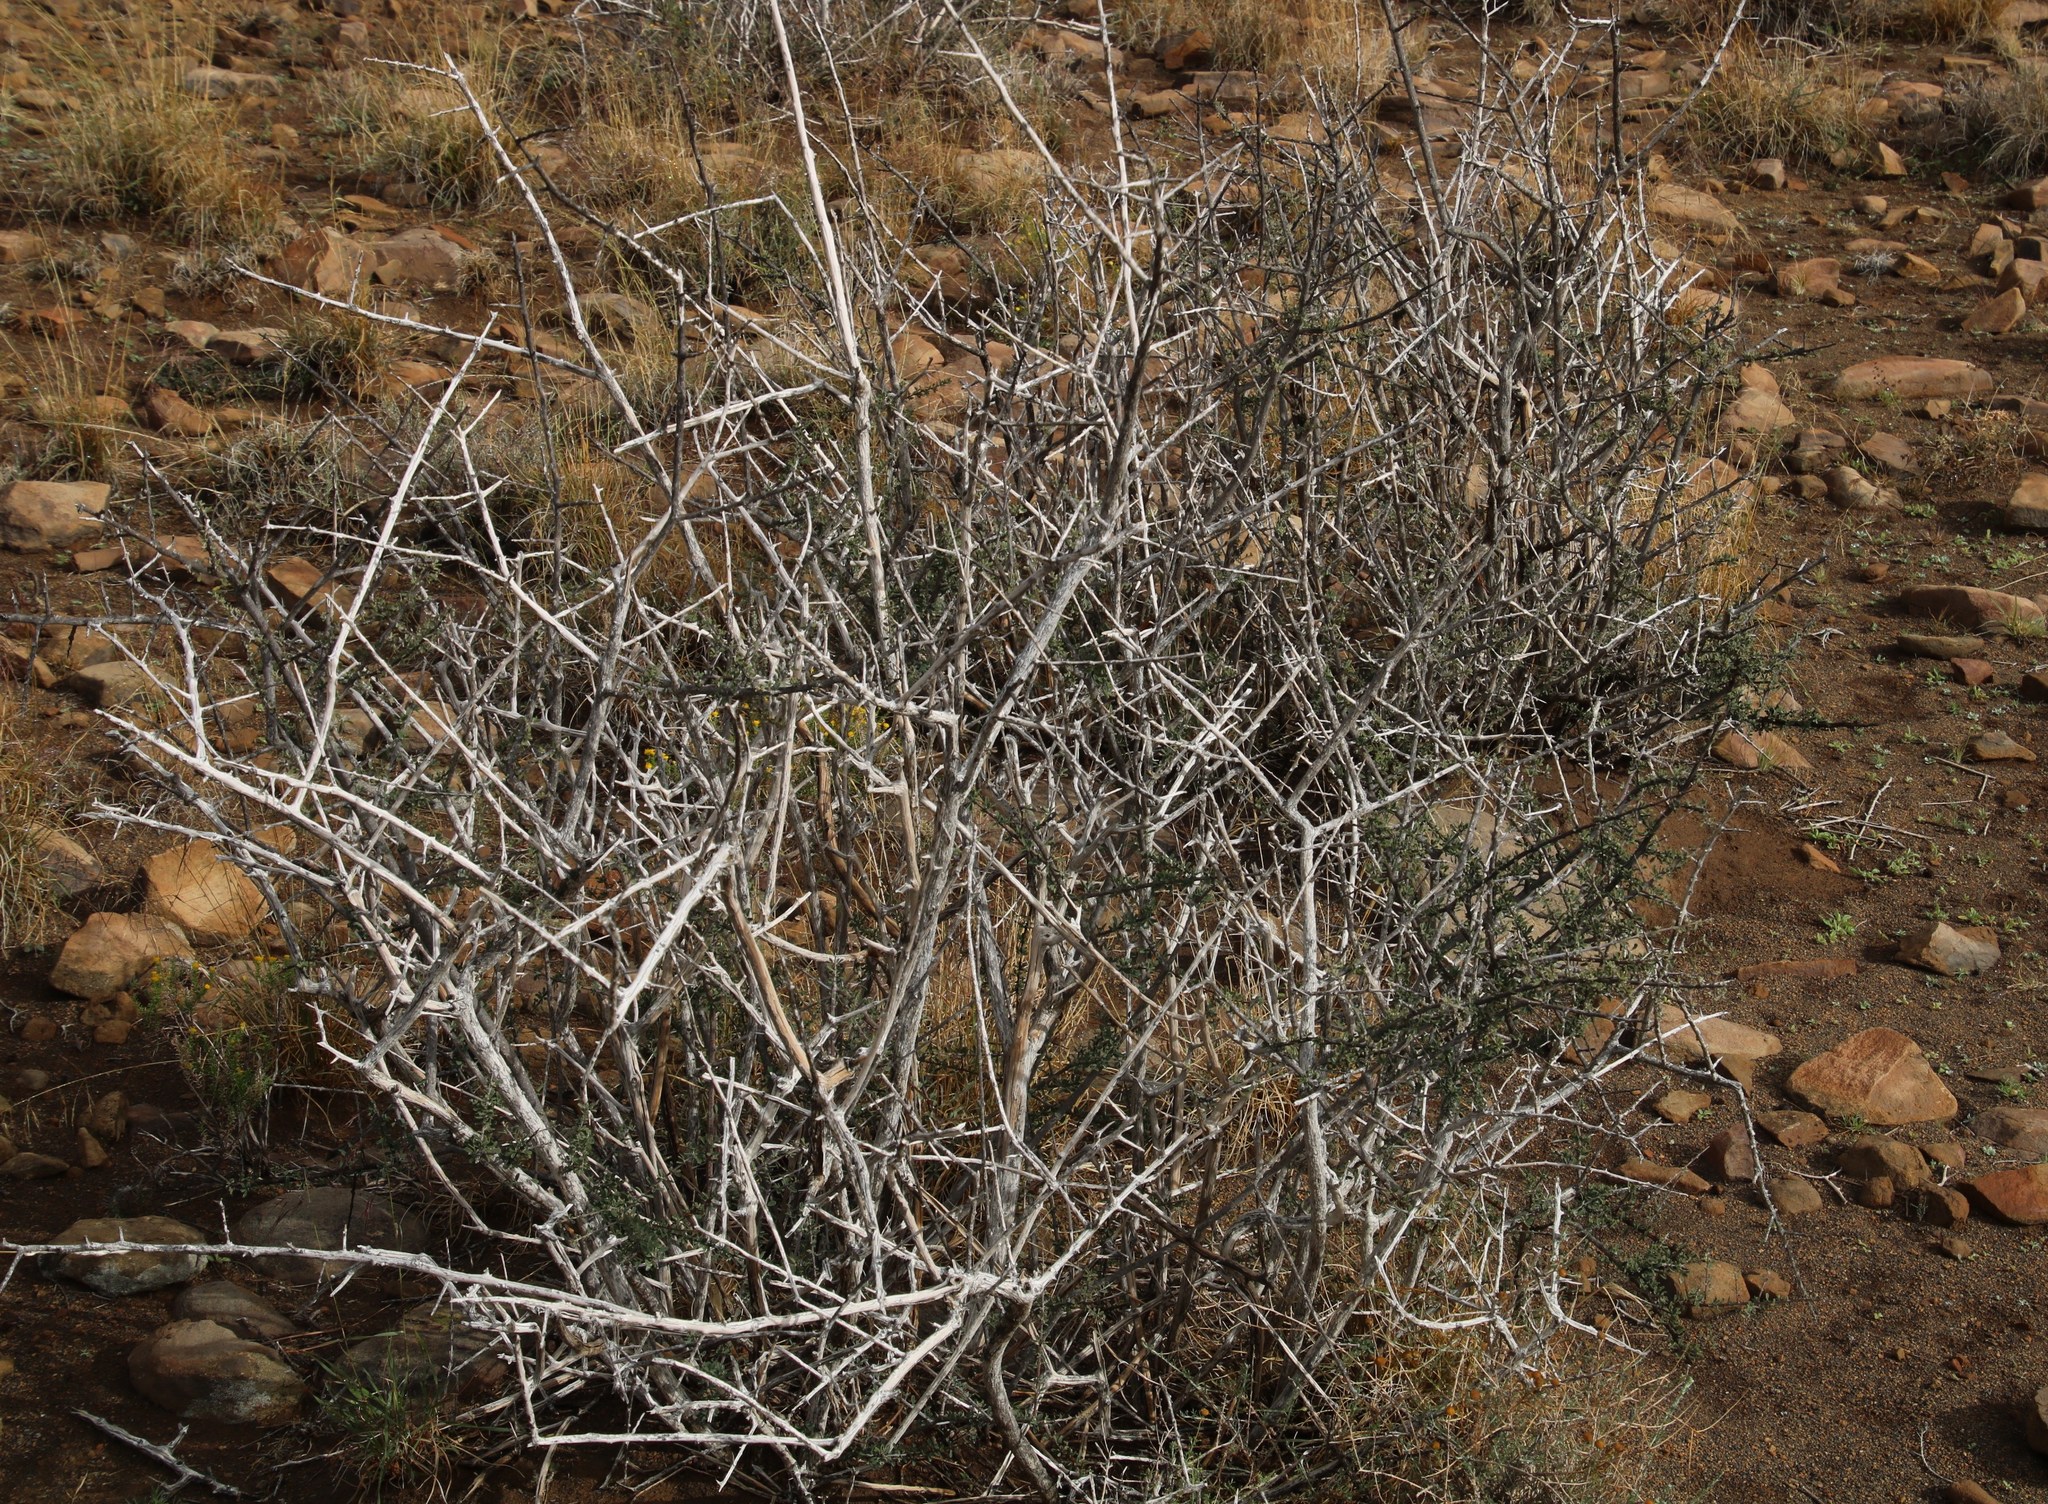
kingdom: Plantae
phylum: Tracheophyta
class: Magnoliopsida
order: Lamiales
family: Bignoniaceae
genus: Rhigozum
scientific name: Rhigozum obovatum
